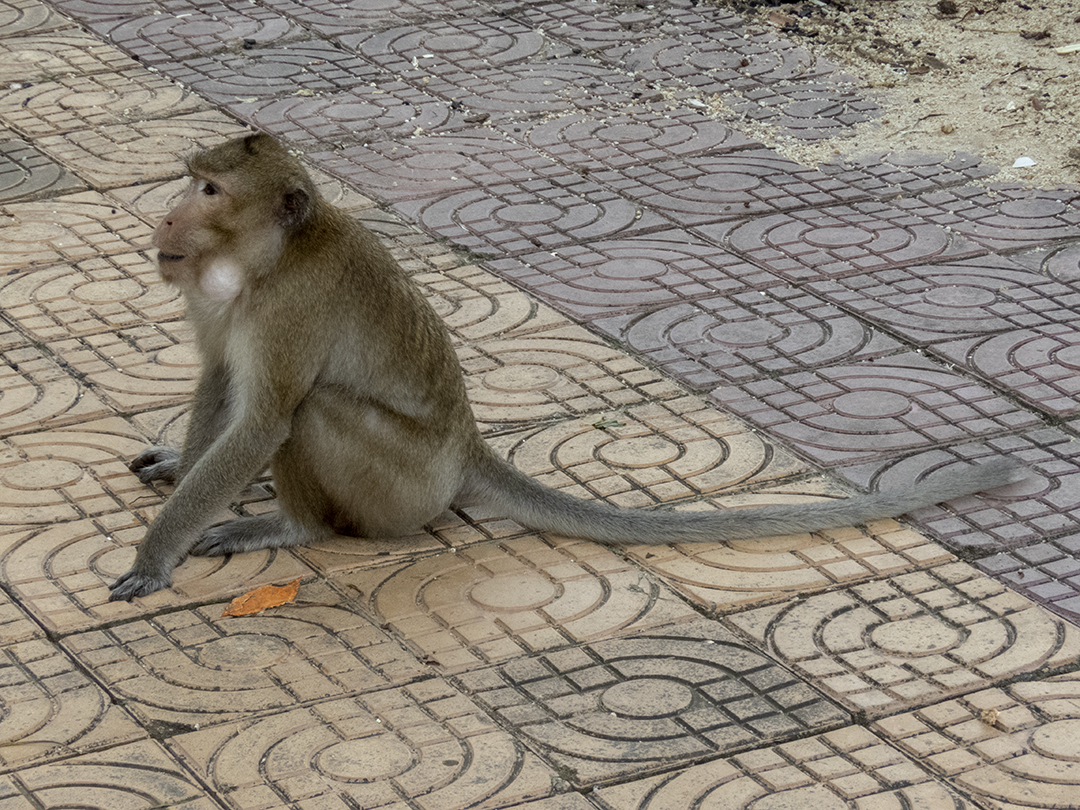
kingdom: Animalia
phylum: Chordata
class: Mammalia
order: Primates
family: Cercopithecidae
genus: Macaca
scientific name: Macaca fascicularis
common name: Crab-eating macaque
